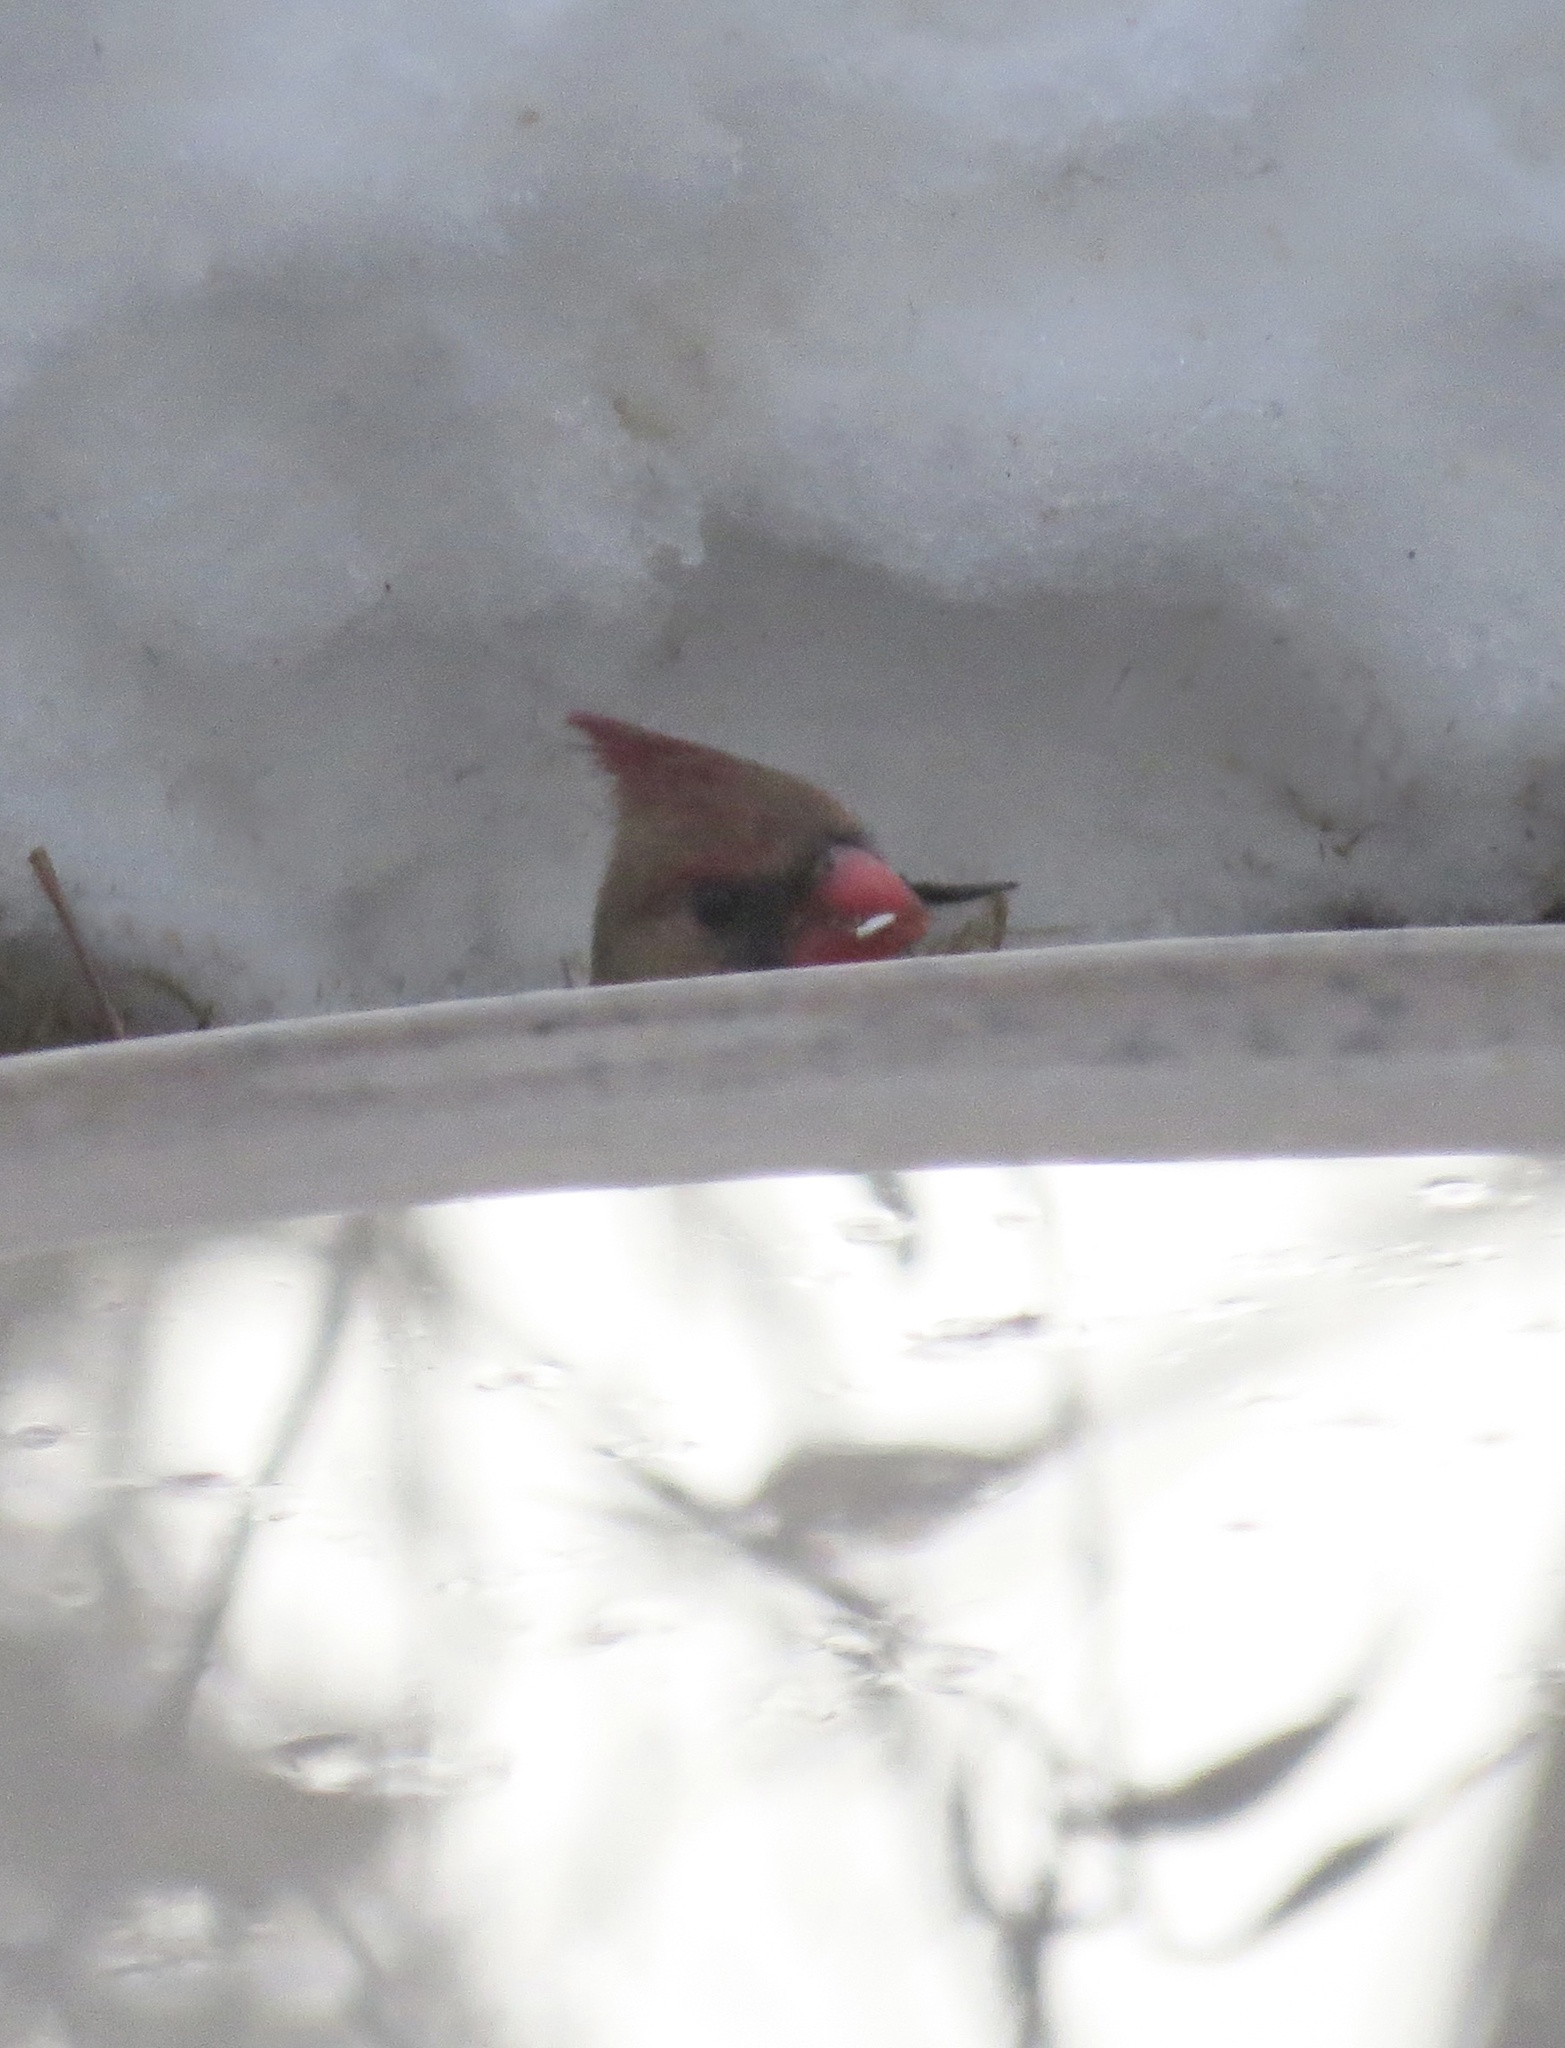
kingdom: Animalia
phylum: Chordata
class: Aves
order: Passeriformes
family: Cardinalidae
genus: Cardinalis
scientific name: Cardinalis cardinalis
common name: Northern cardinal
